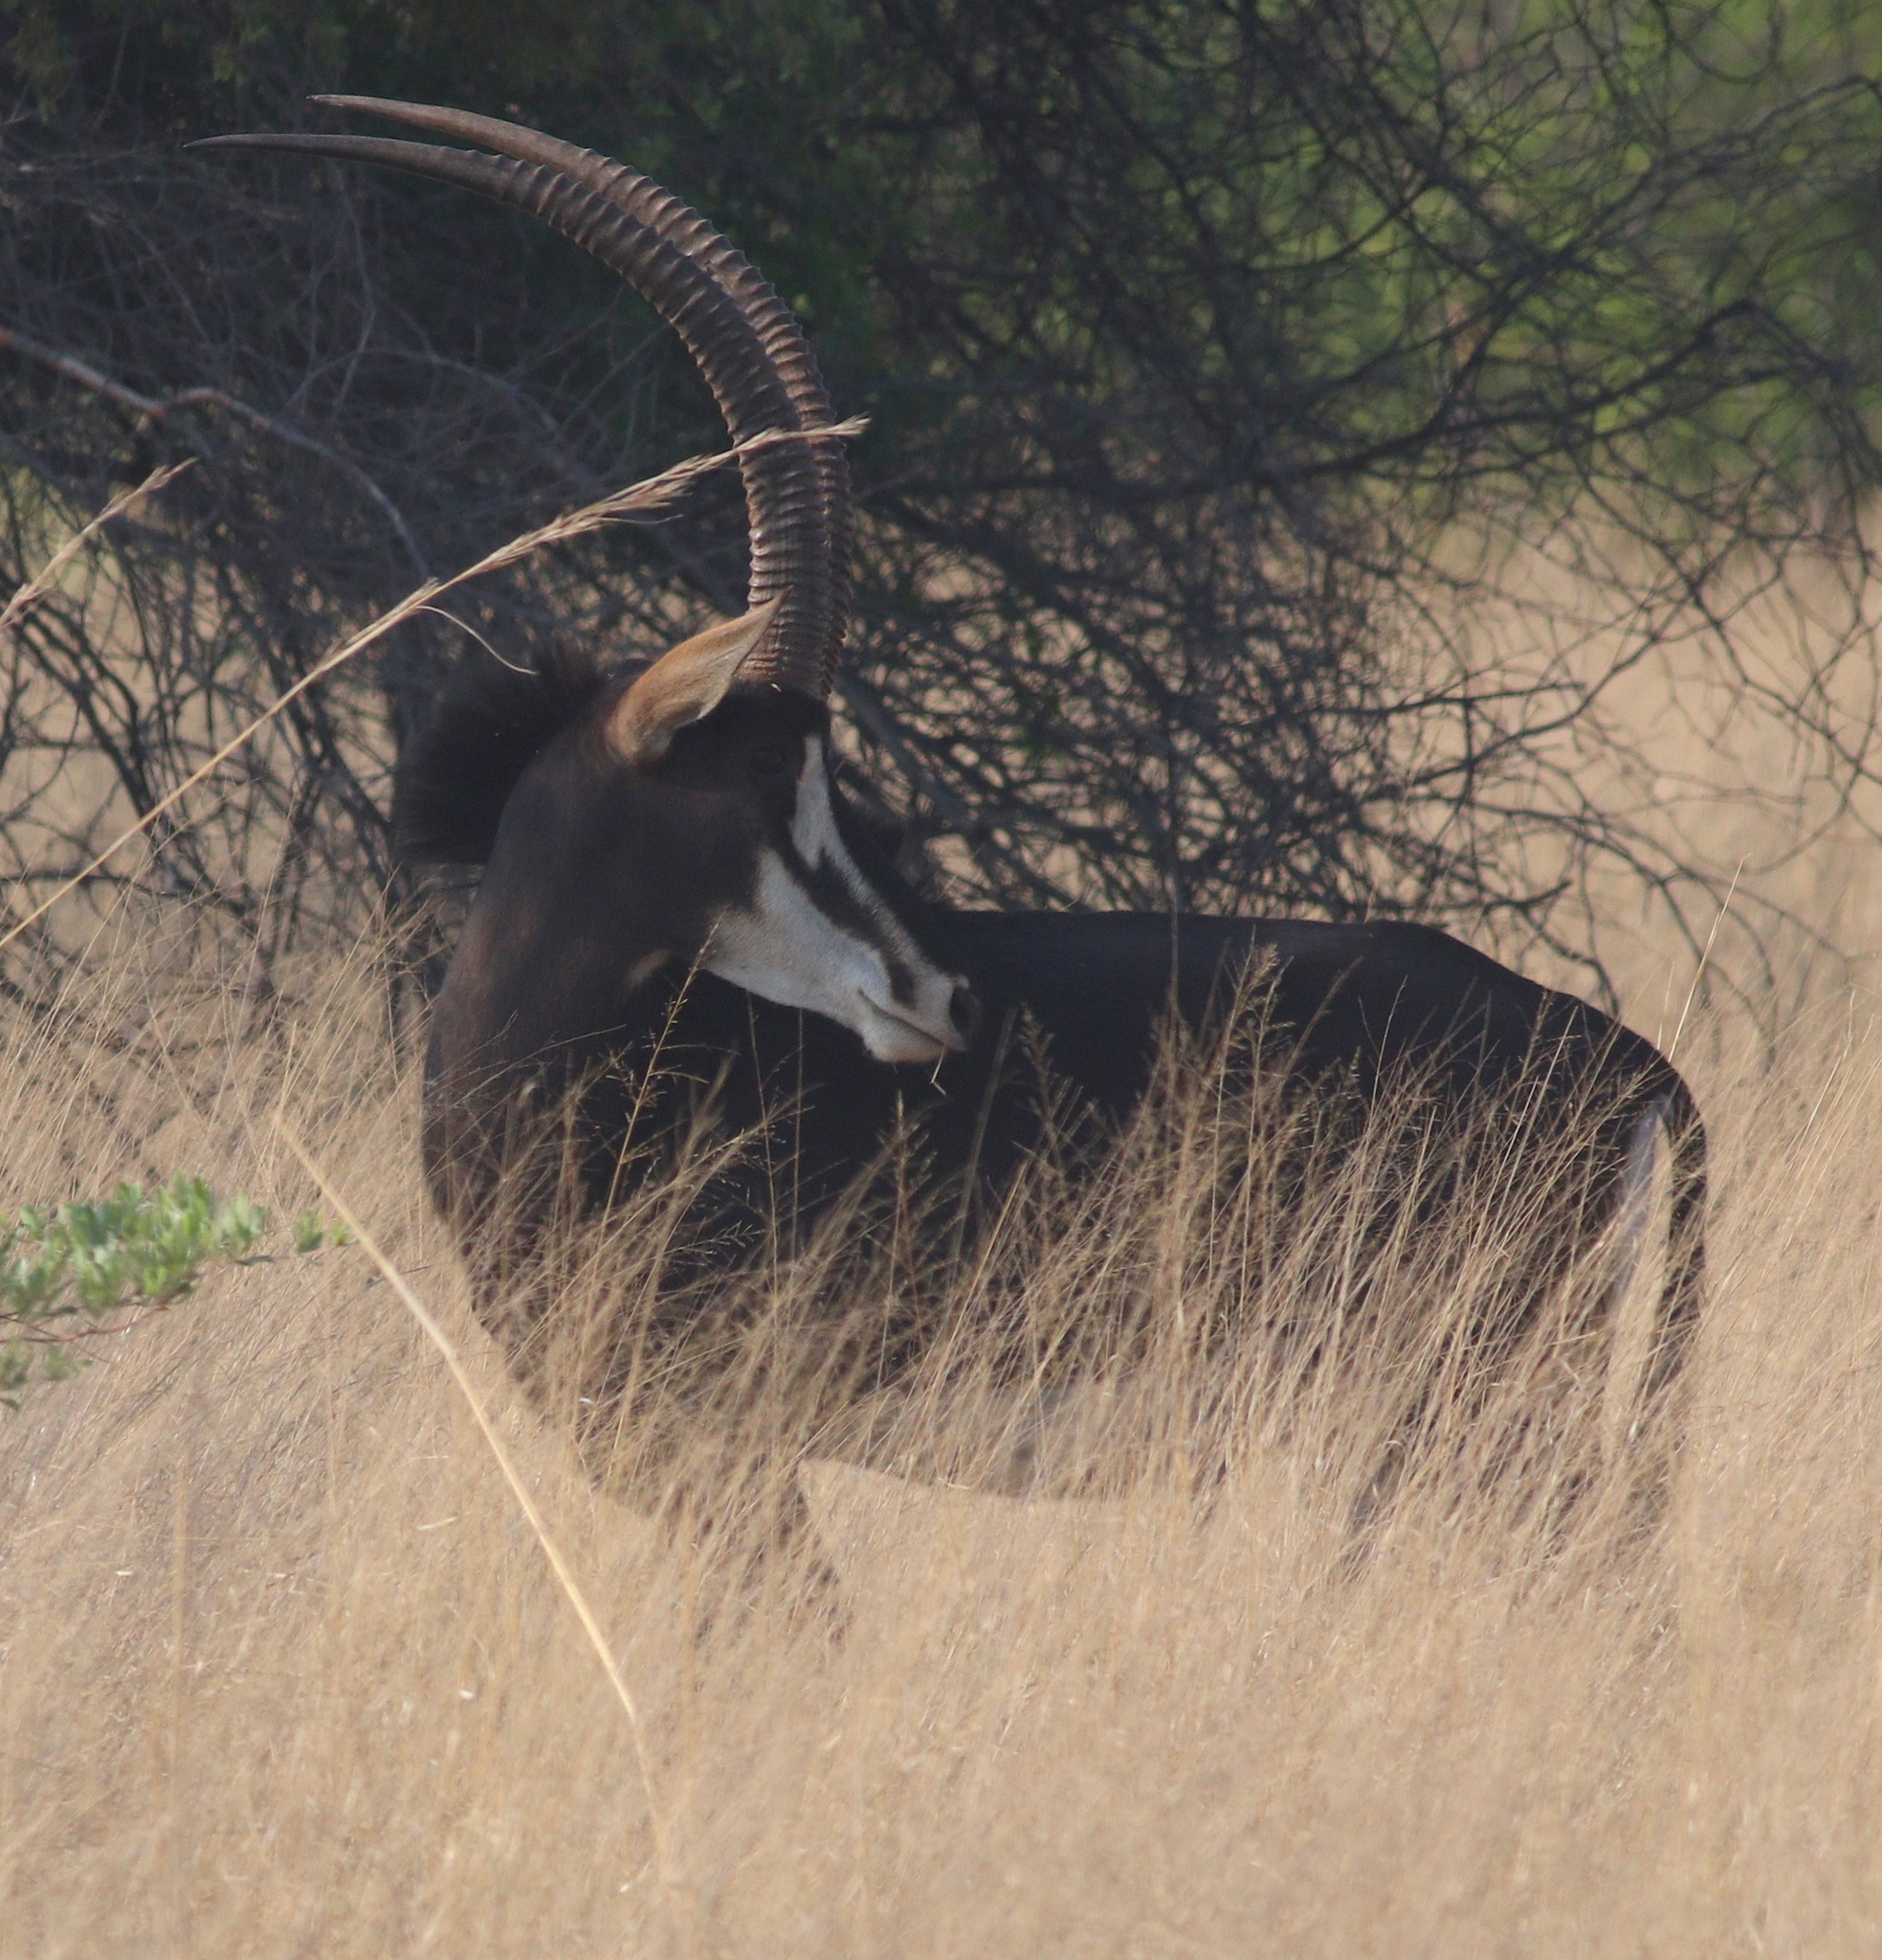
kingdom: Animalia
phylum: Chordata
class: Mammalia
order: Artiodactyla
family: Bovidae
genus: Hippotragus
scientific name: Hippotragus niger
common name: Sable antelope
